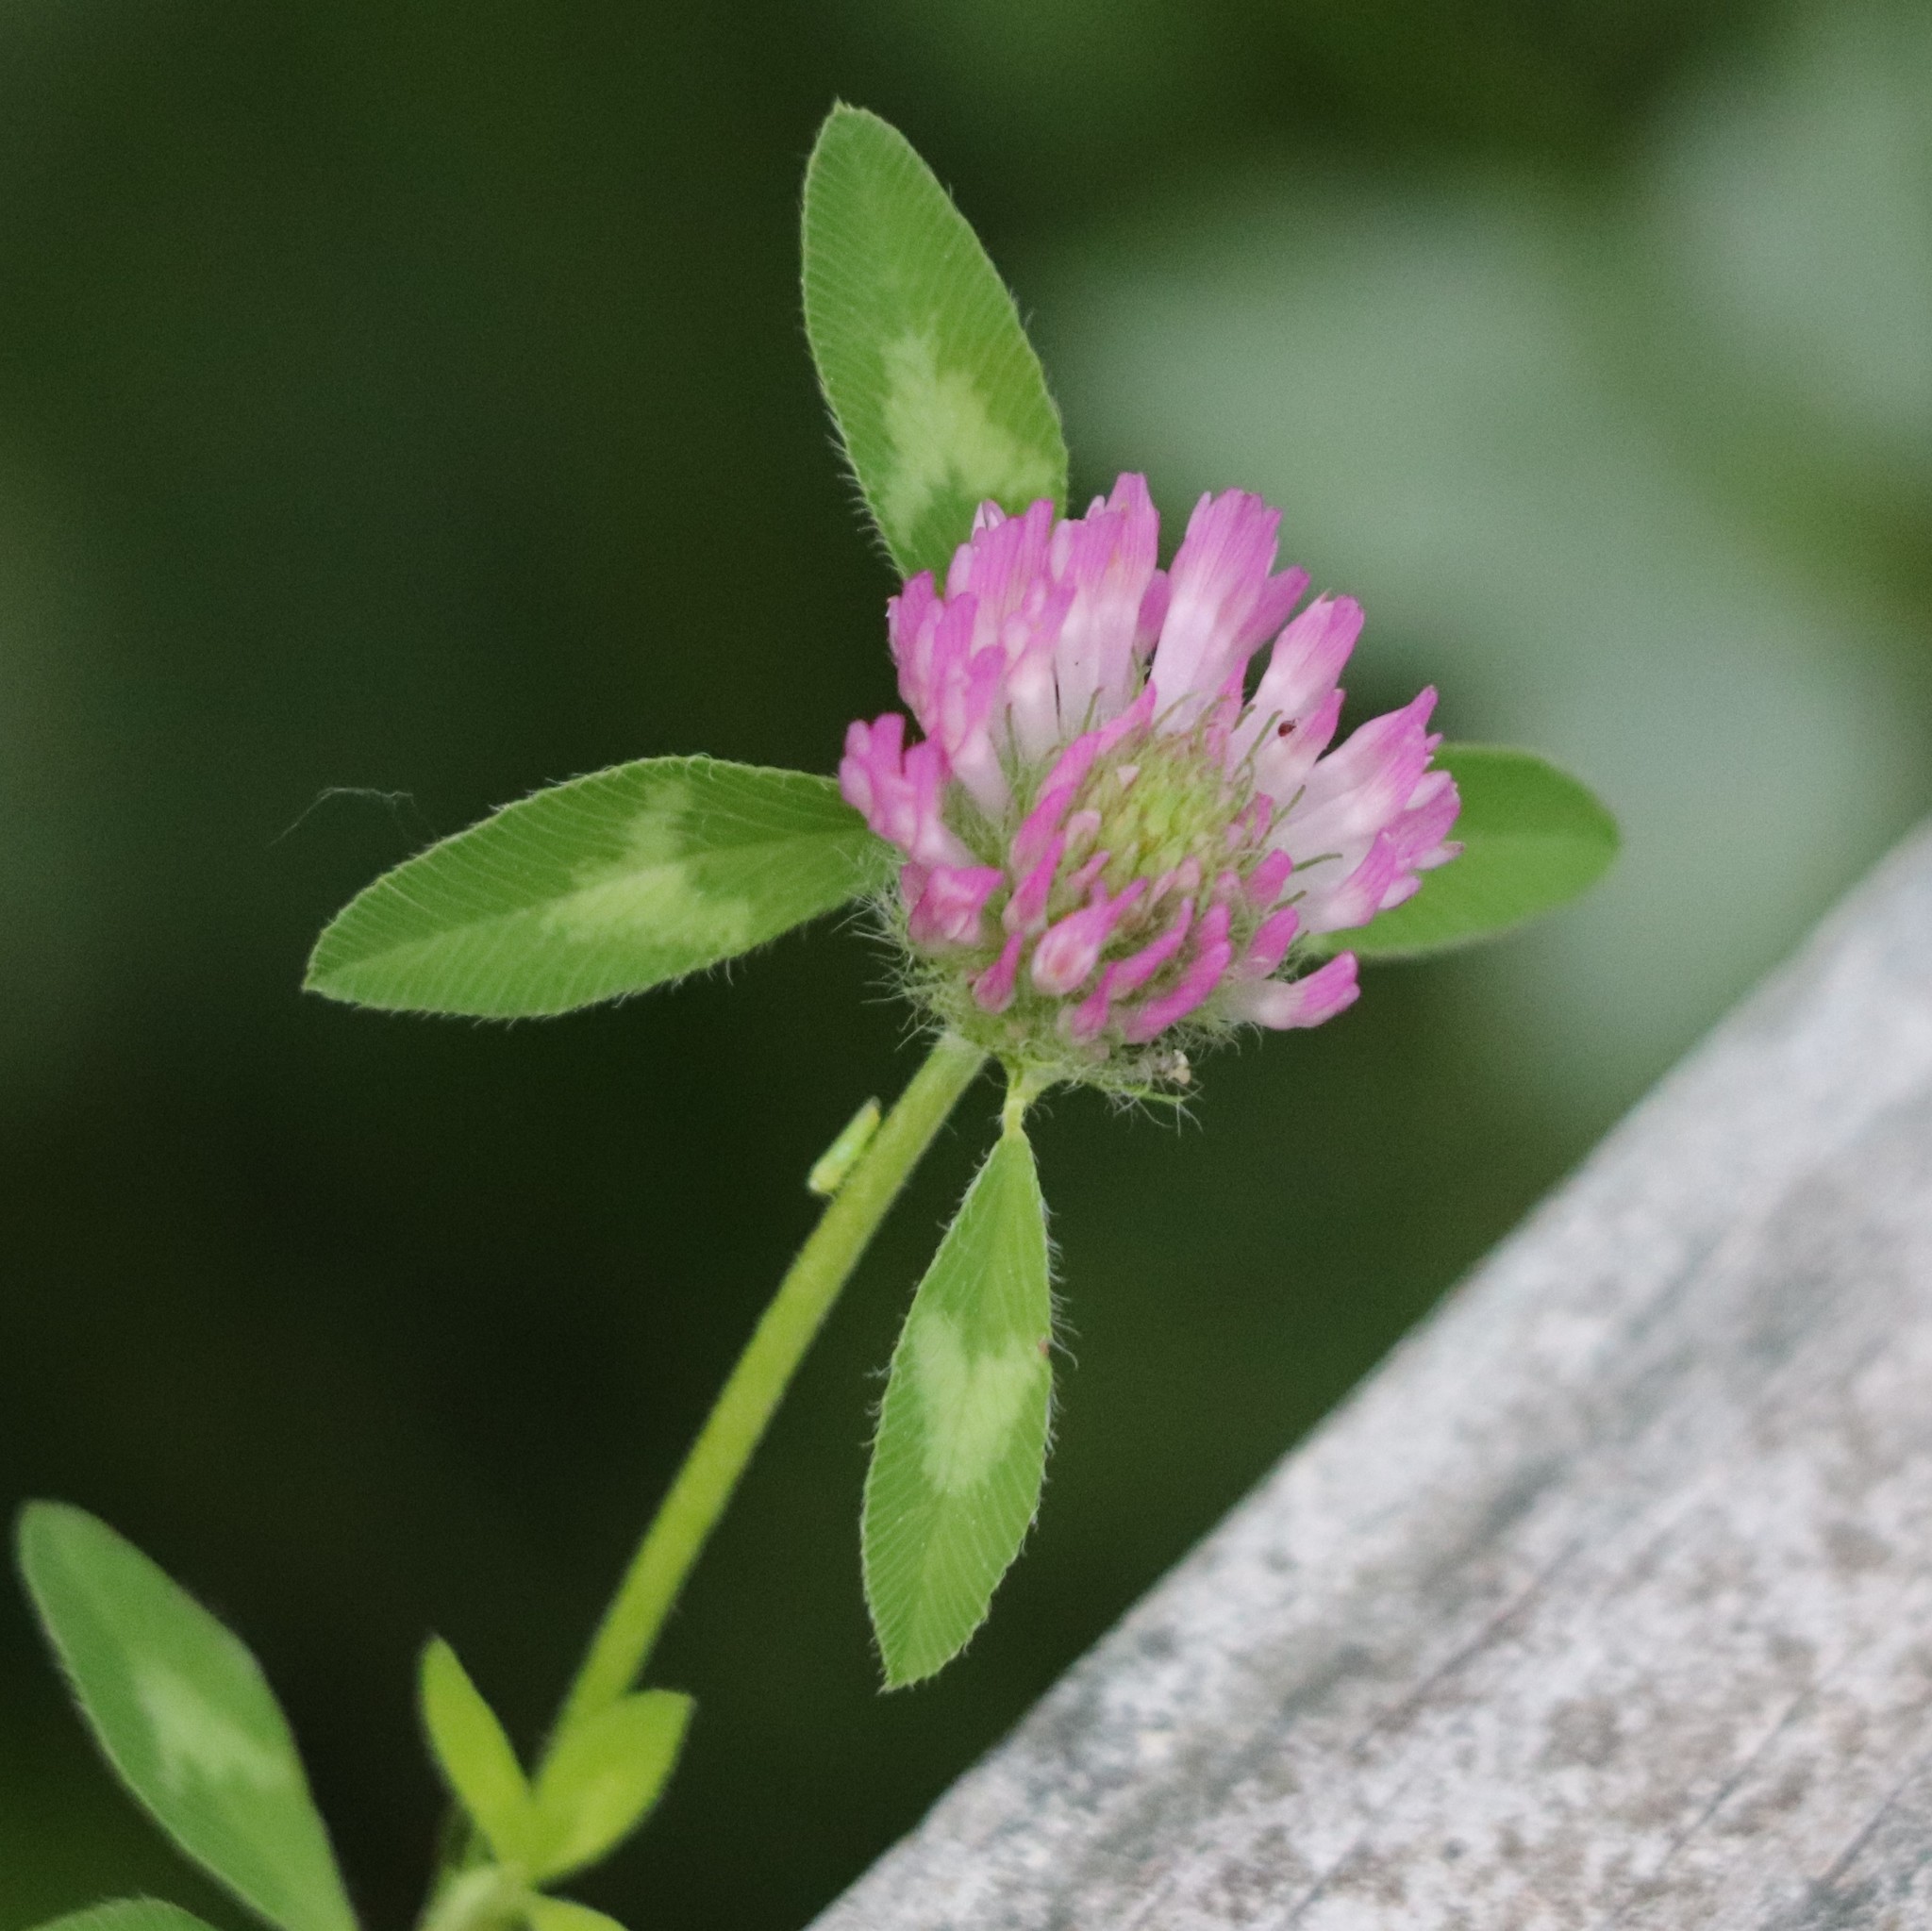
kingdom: Plantae
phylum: Tracheophyta
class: Magnoliopsida
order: Fabales
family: Fabaceae
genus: Trifolium
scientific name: Trifolium pratense
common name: Red clover
